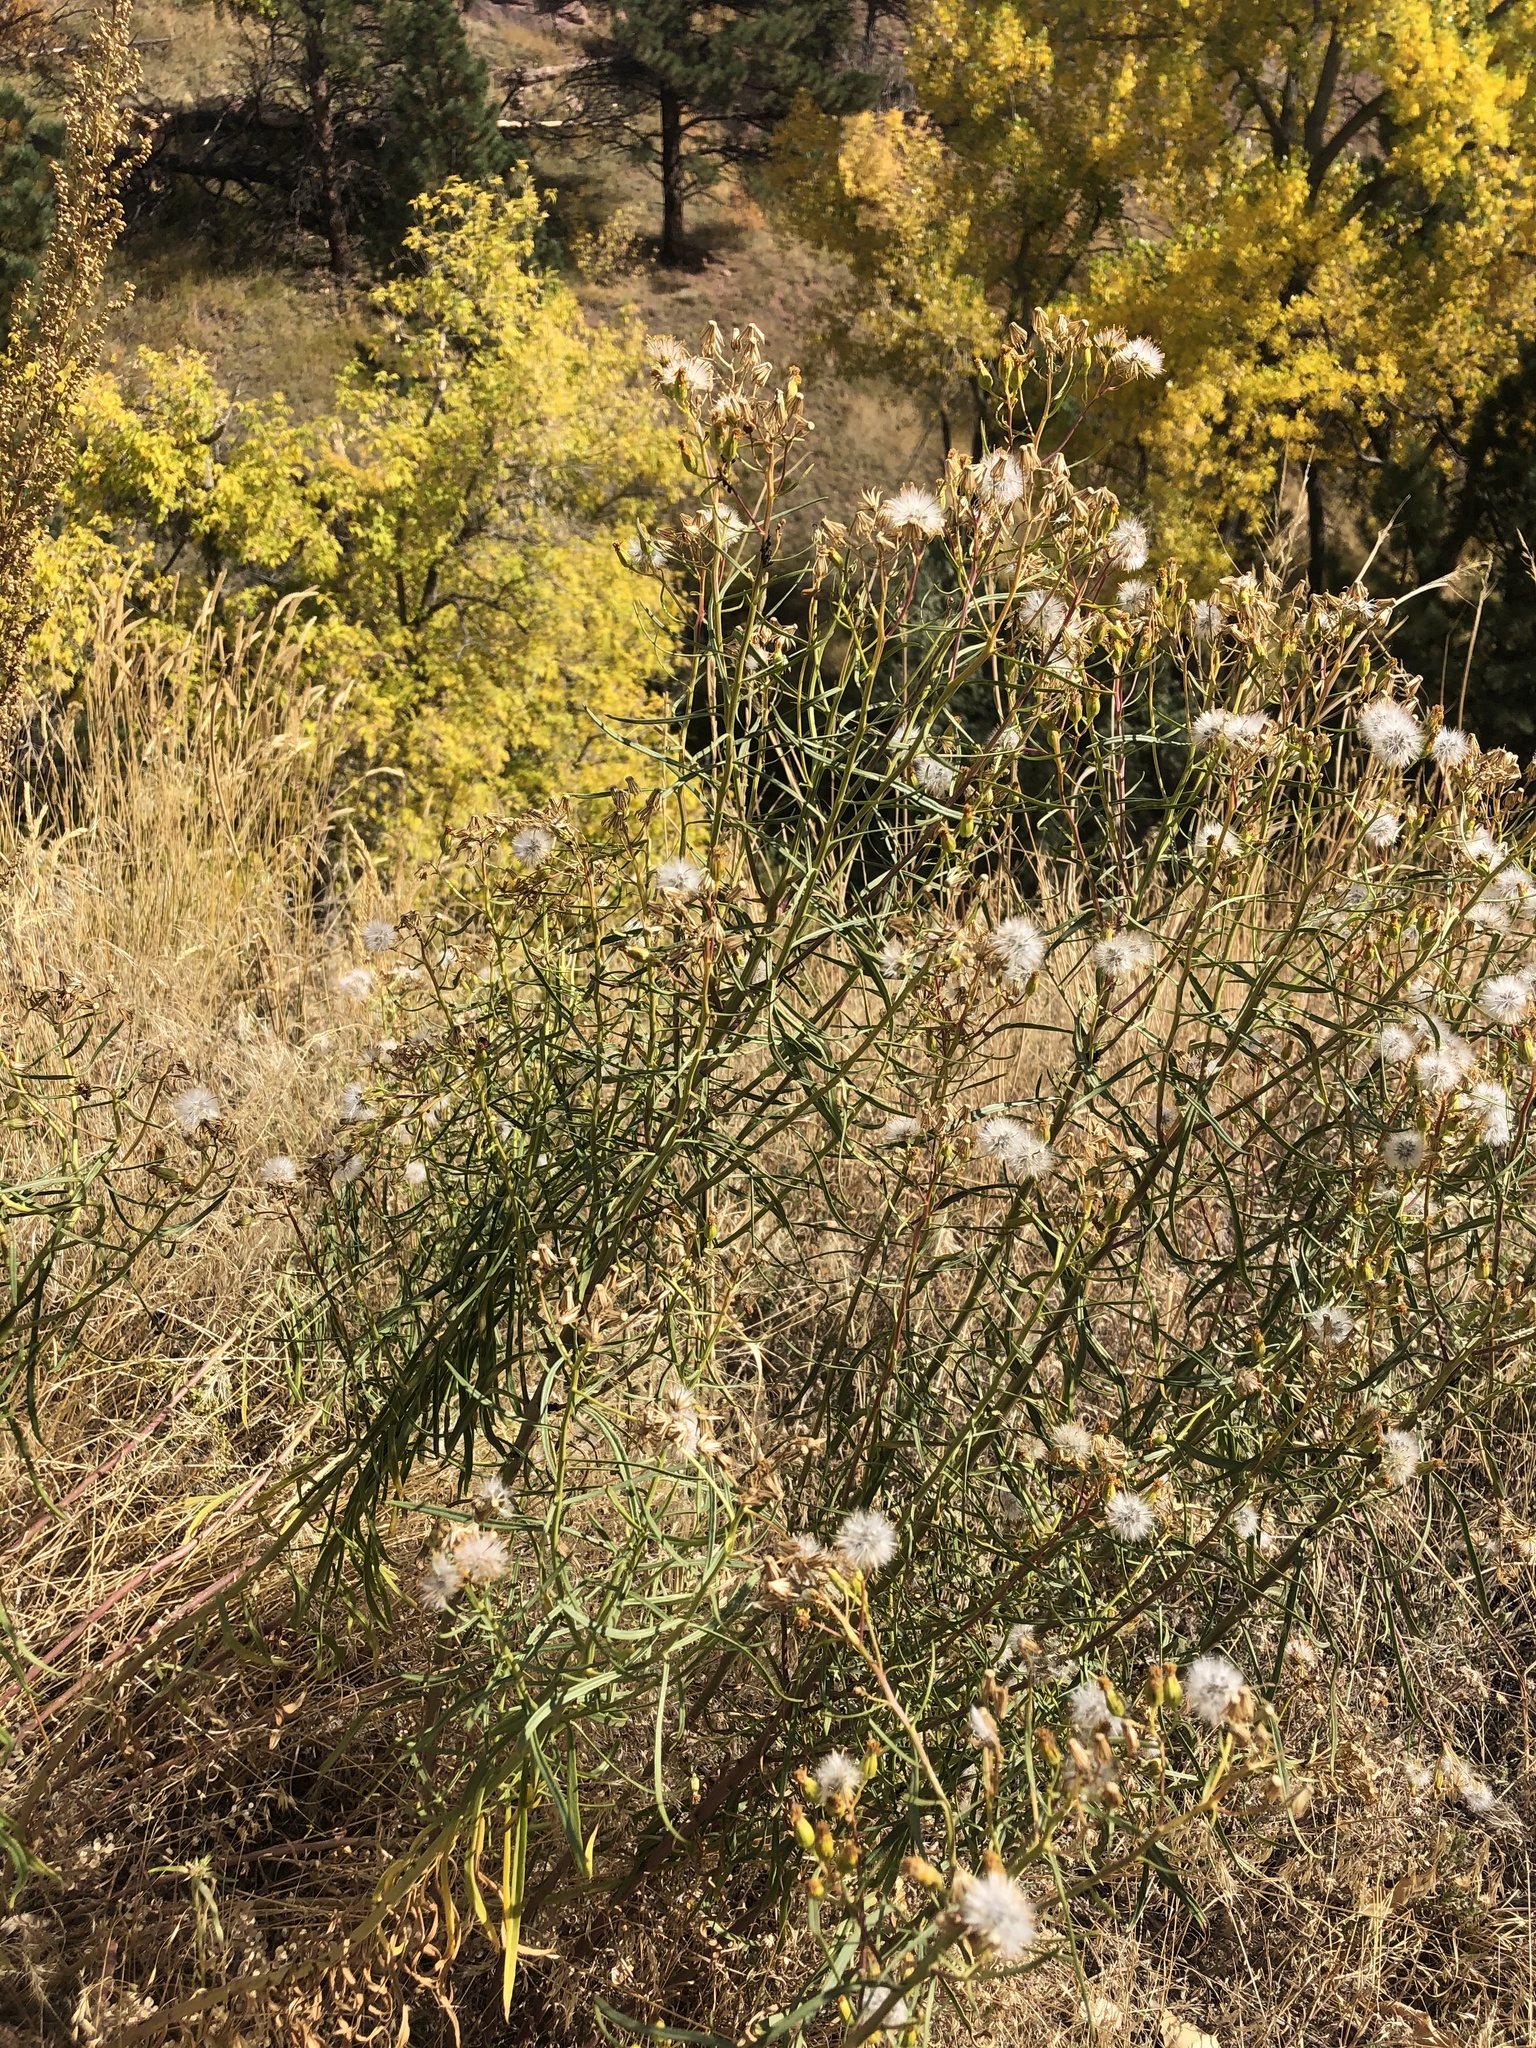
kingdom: Plantae
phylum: Tracheophyta
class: Magnoliopsida
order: Asterales
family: Asteraceae
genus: Senecio
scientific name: Senecio spartioides
